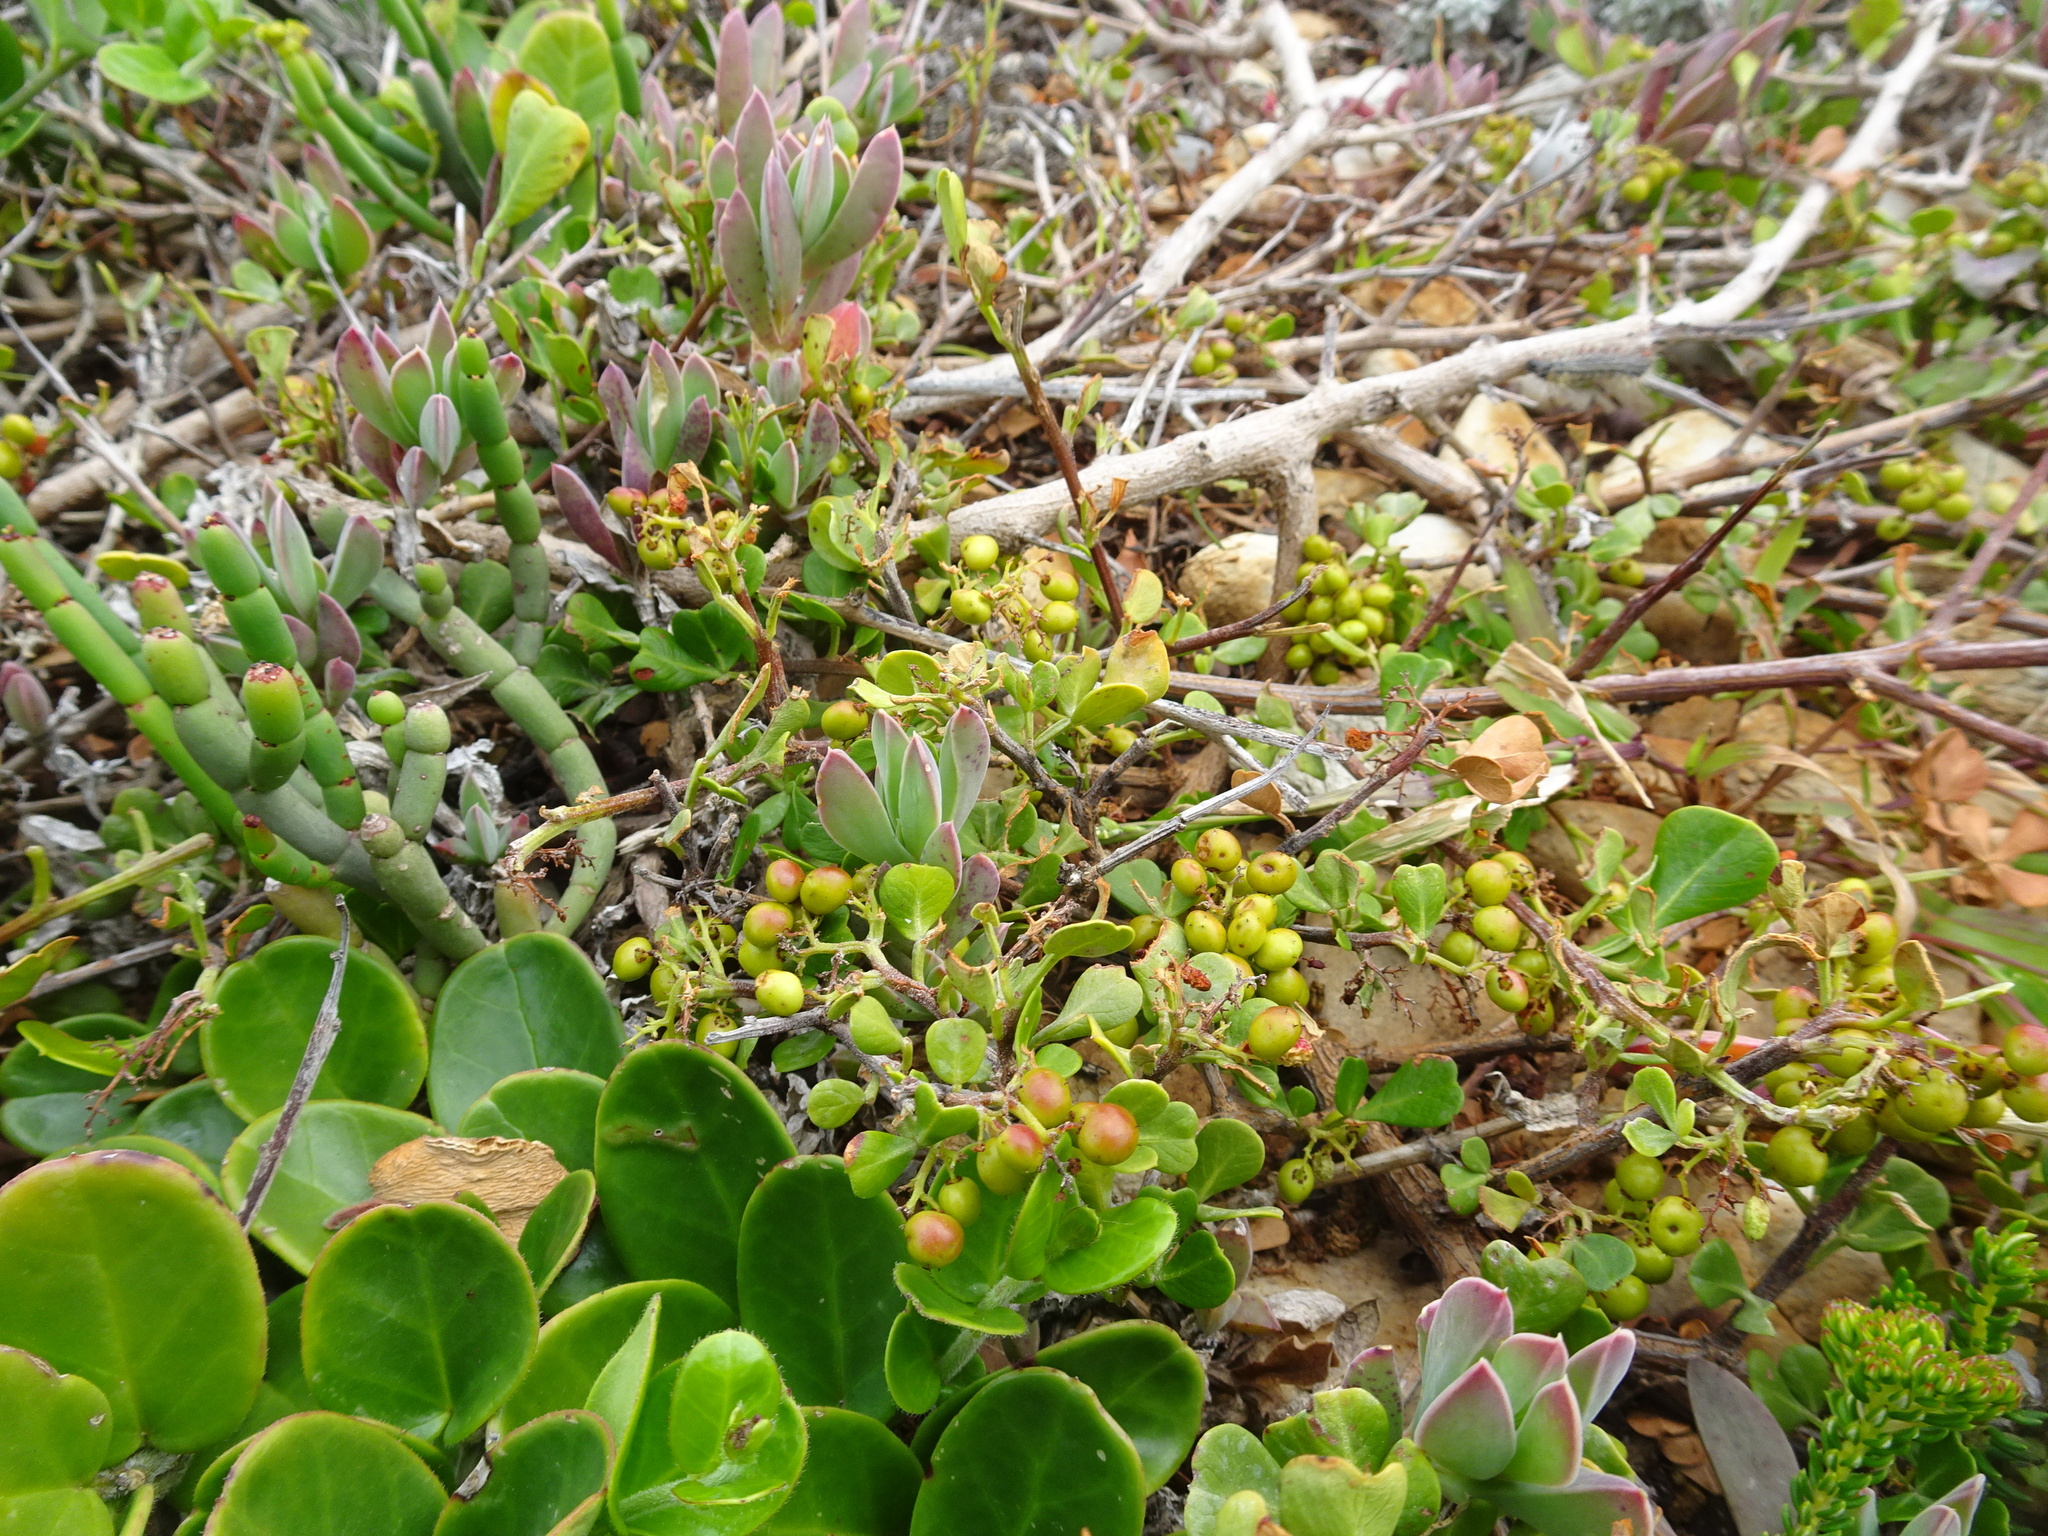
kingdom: Plantae
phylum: Tracheophyta
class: Magnoliopsida
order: Sapindales
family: Anacardiaceae
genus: Searsia
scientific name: Searsia glauca
